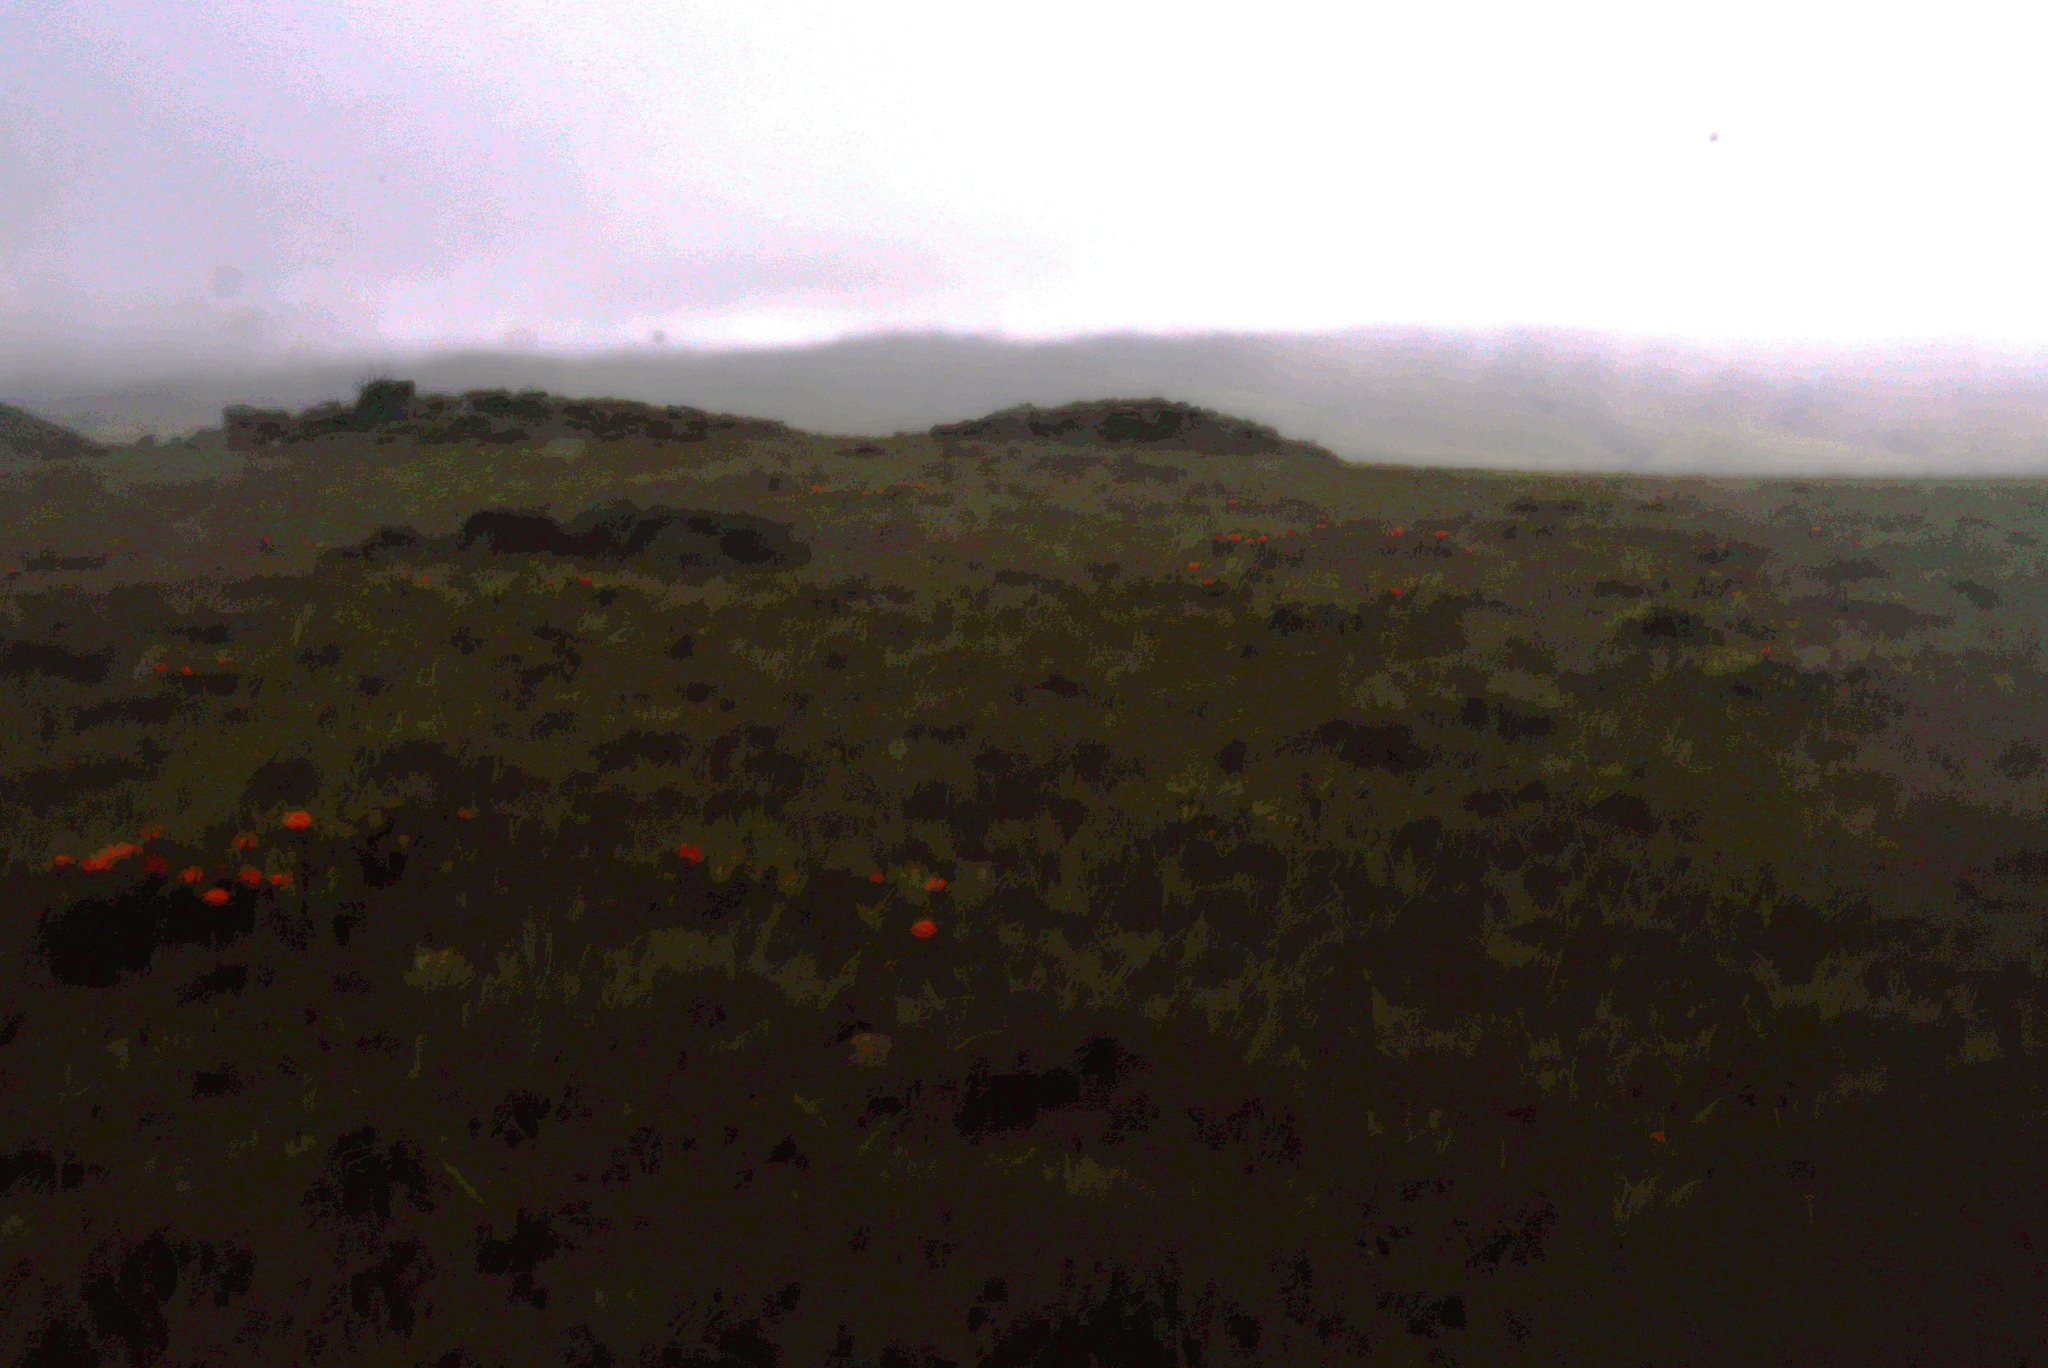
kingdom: Plantae
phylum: Tracheophyta
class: Magnoliopsida
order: Proteales
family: Proteaceae
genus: Leucospermum
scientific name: Leucospermum gerrardii
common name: Soapstone pincushion
